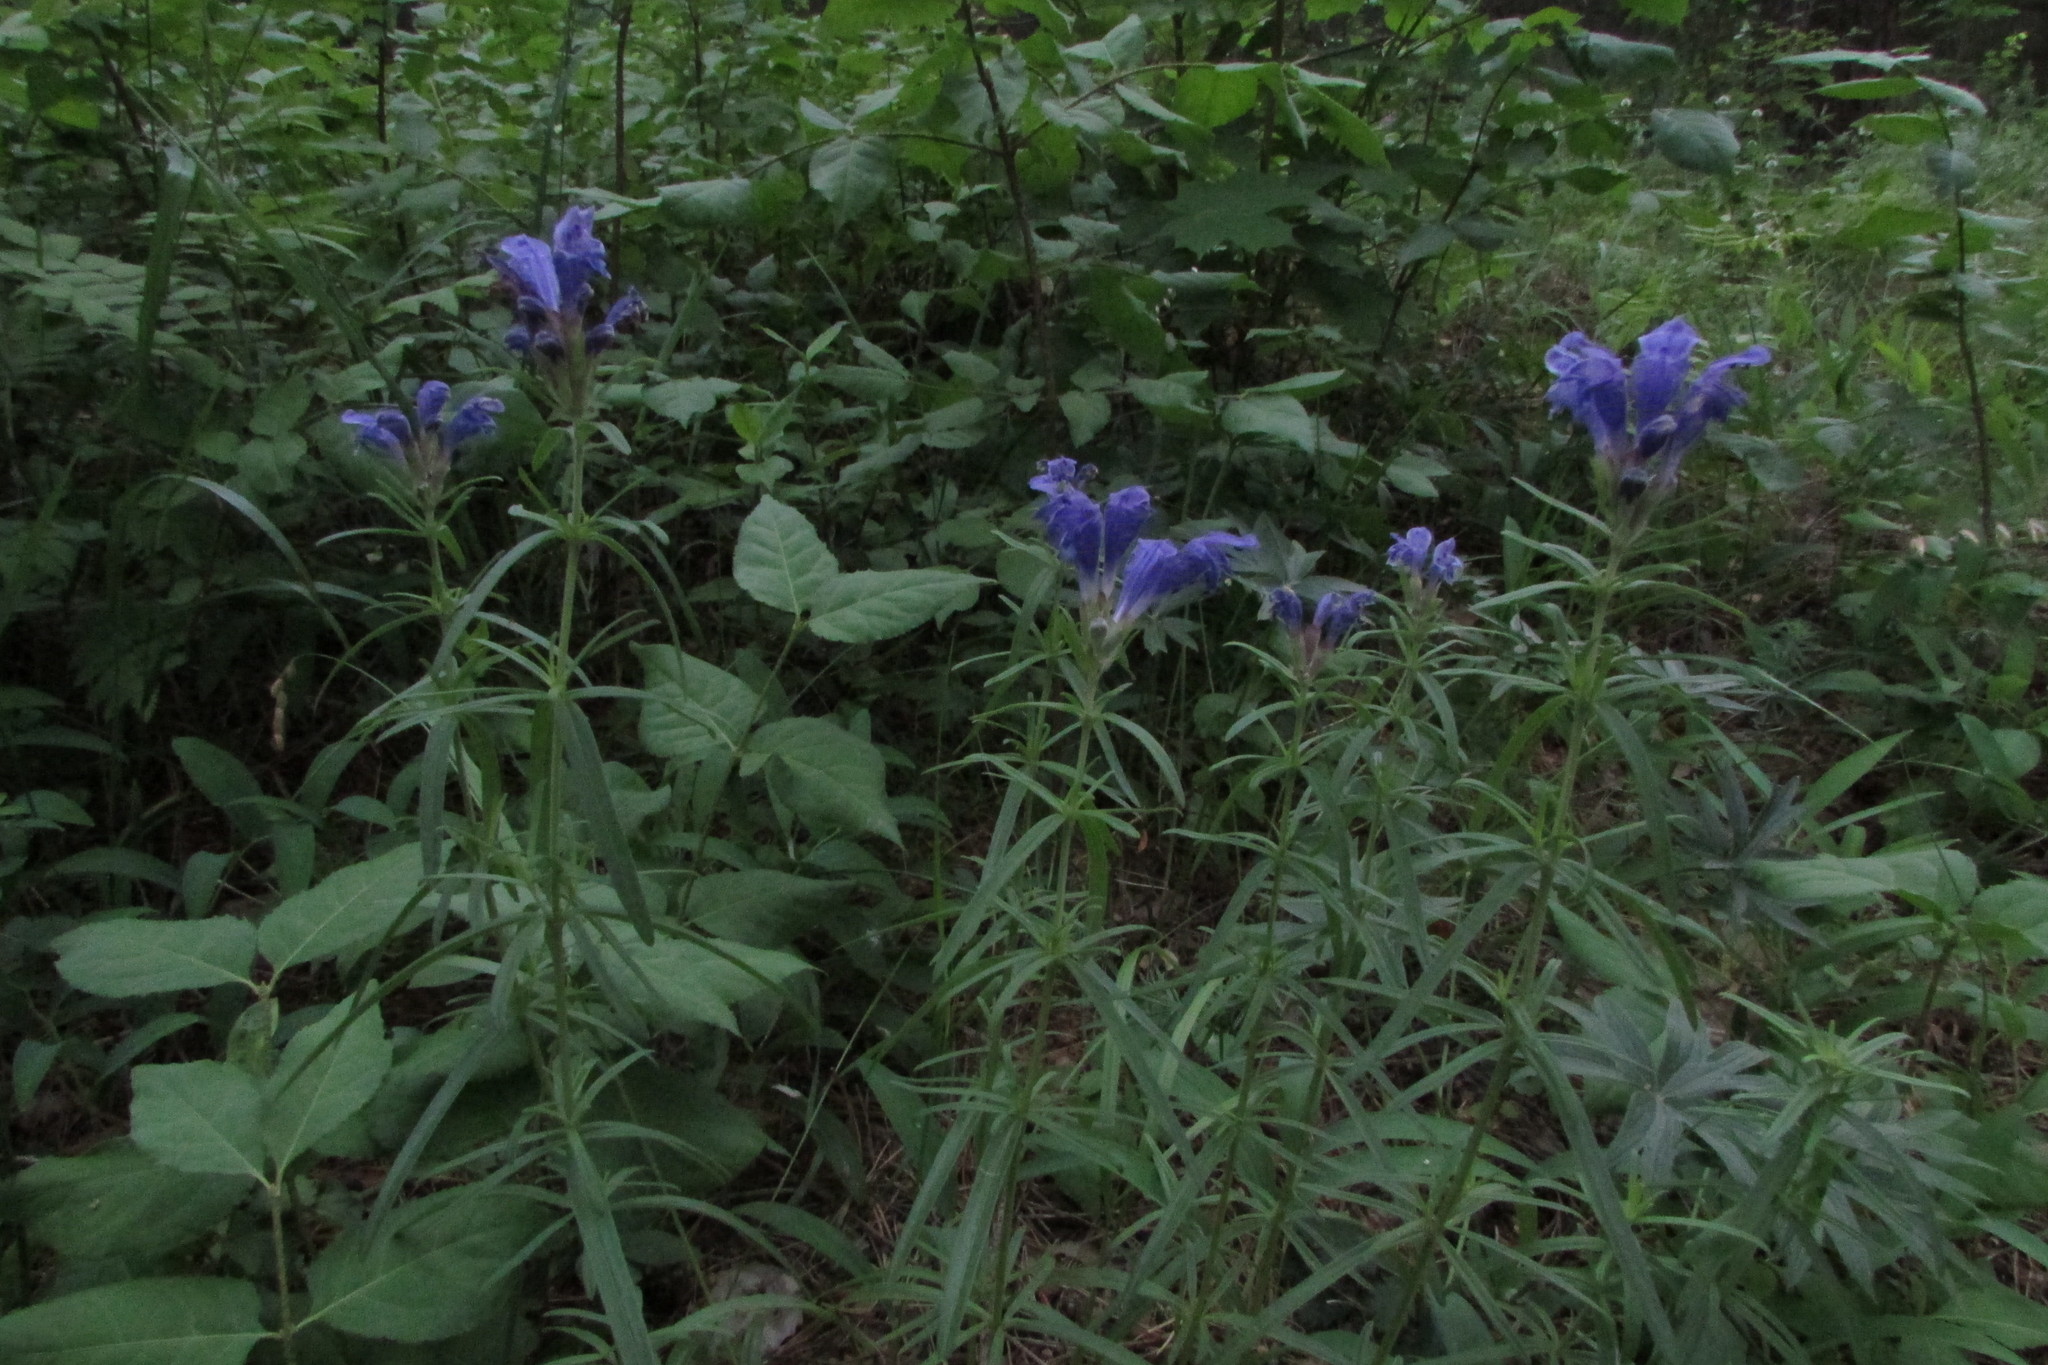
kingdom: Plantae
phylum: Tracheophyta
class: Magnoliopsida
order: Lamiales
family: Lamiaceae
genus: Dracocephalum
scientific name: Dracocephalum ruyschiana
